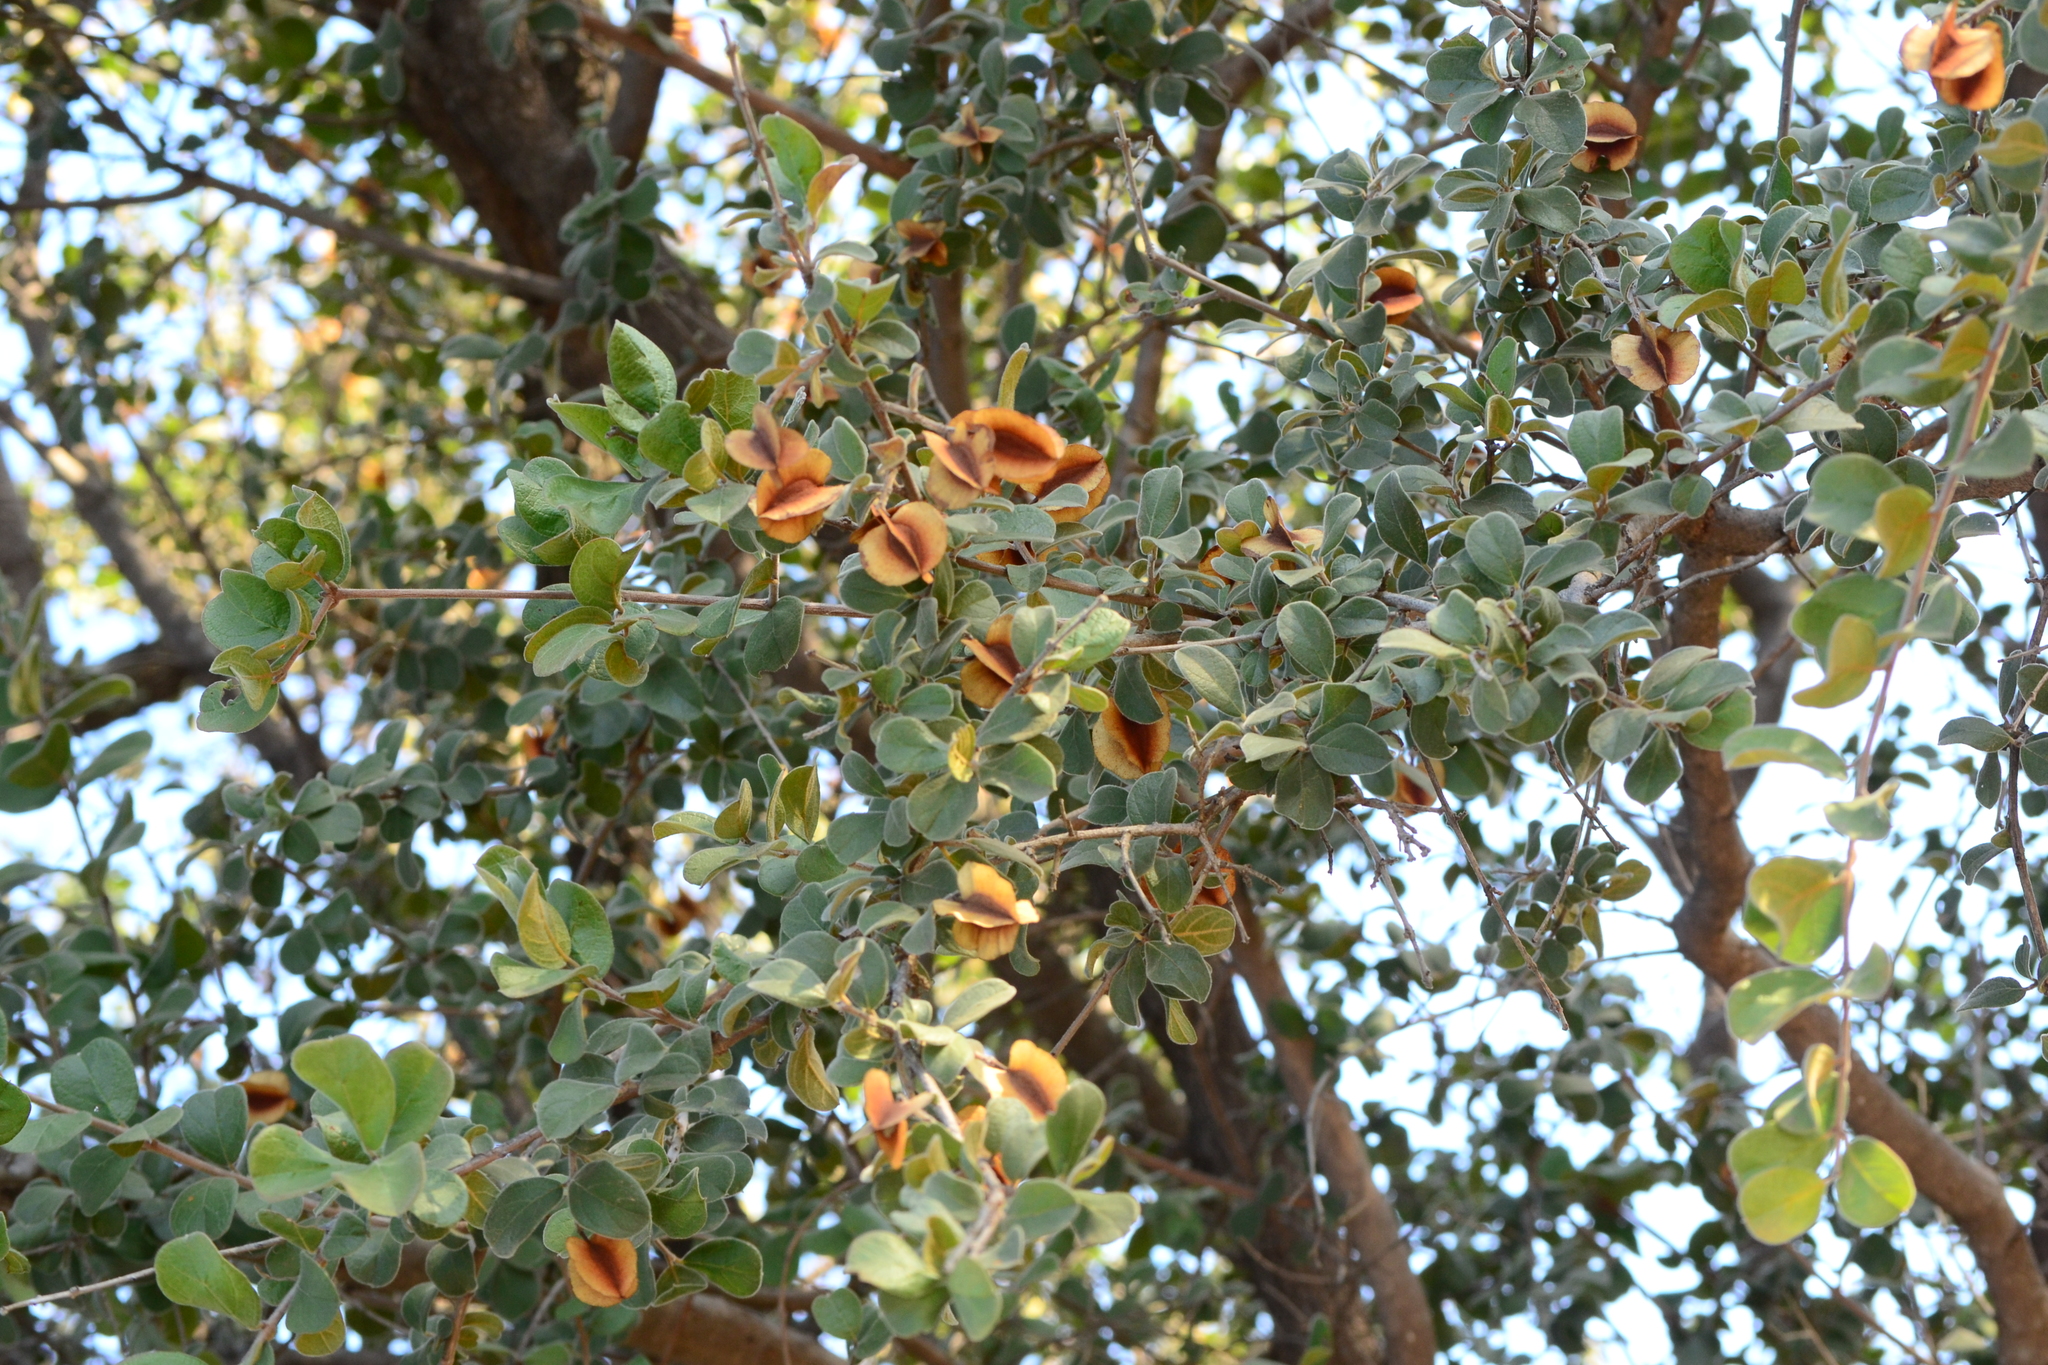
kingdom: Plantae
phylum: Tracheophyta
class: Magnoliopsida
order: Myrtales
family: Combretaceae
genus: Combretum
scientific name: Combretum hereroense
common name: Russet bushwillow
